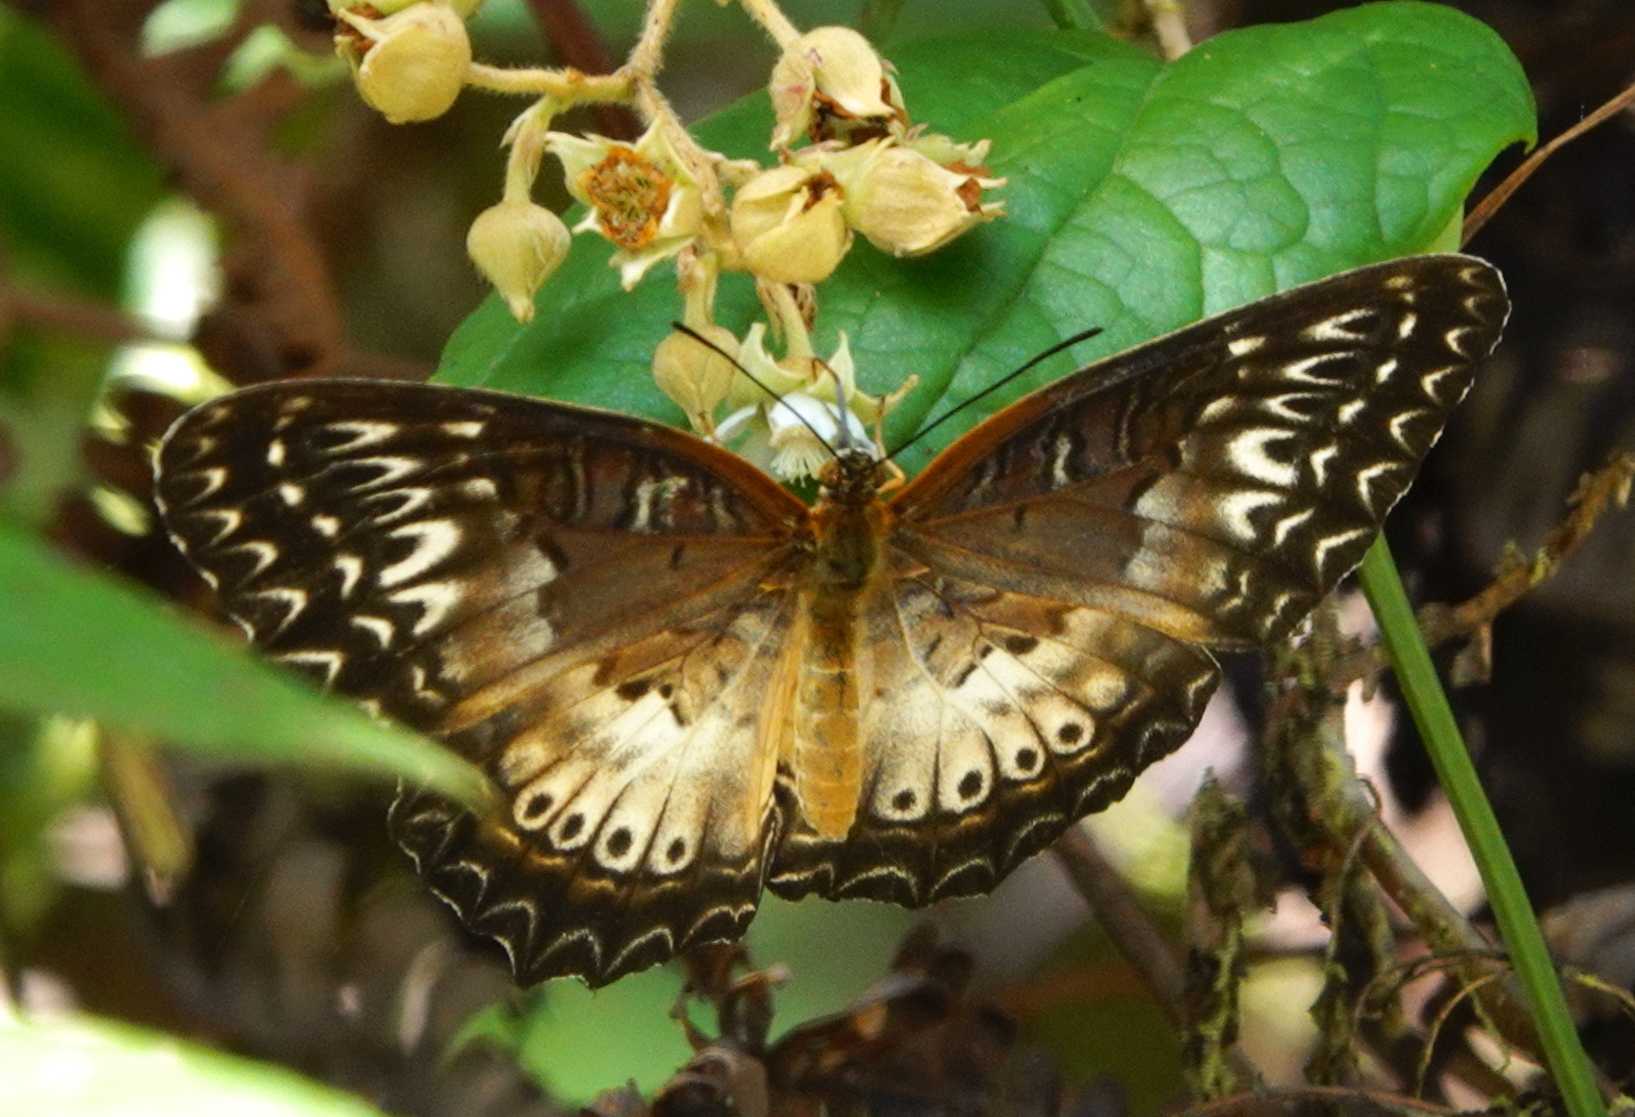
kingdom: Animalia
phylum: Arthropoda
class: Insecta
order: Lepidoptera
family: Nymphalidae
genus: Cethosia
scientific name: Cethosia biblis
